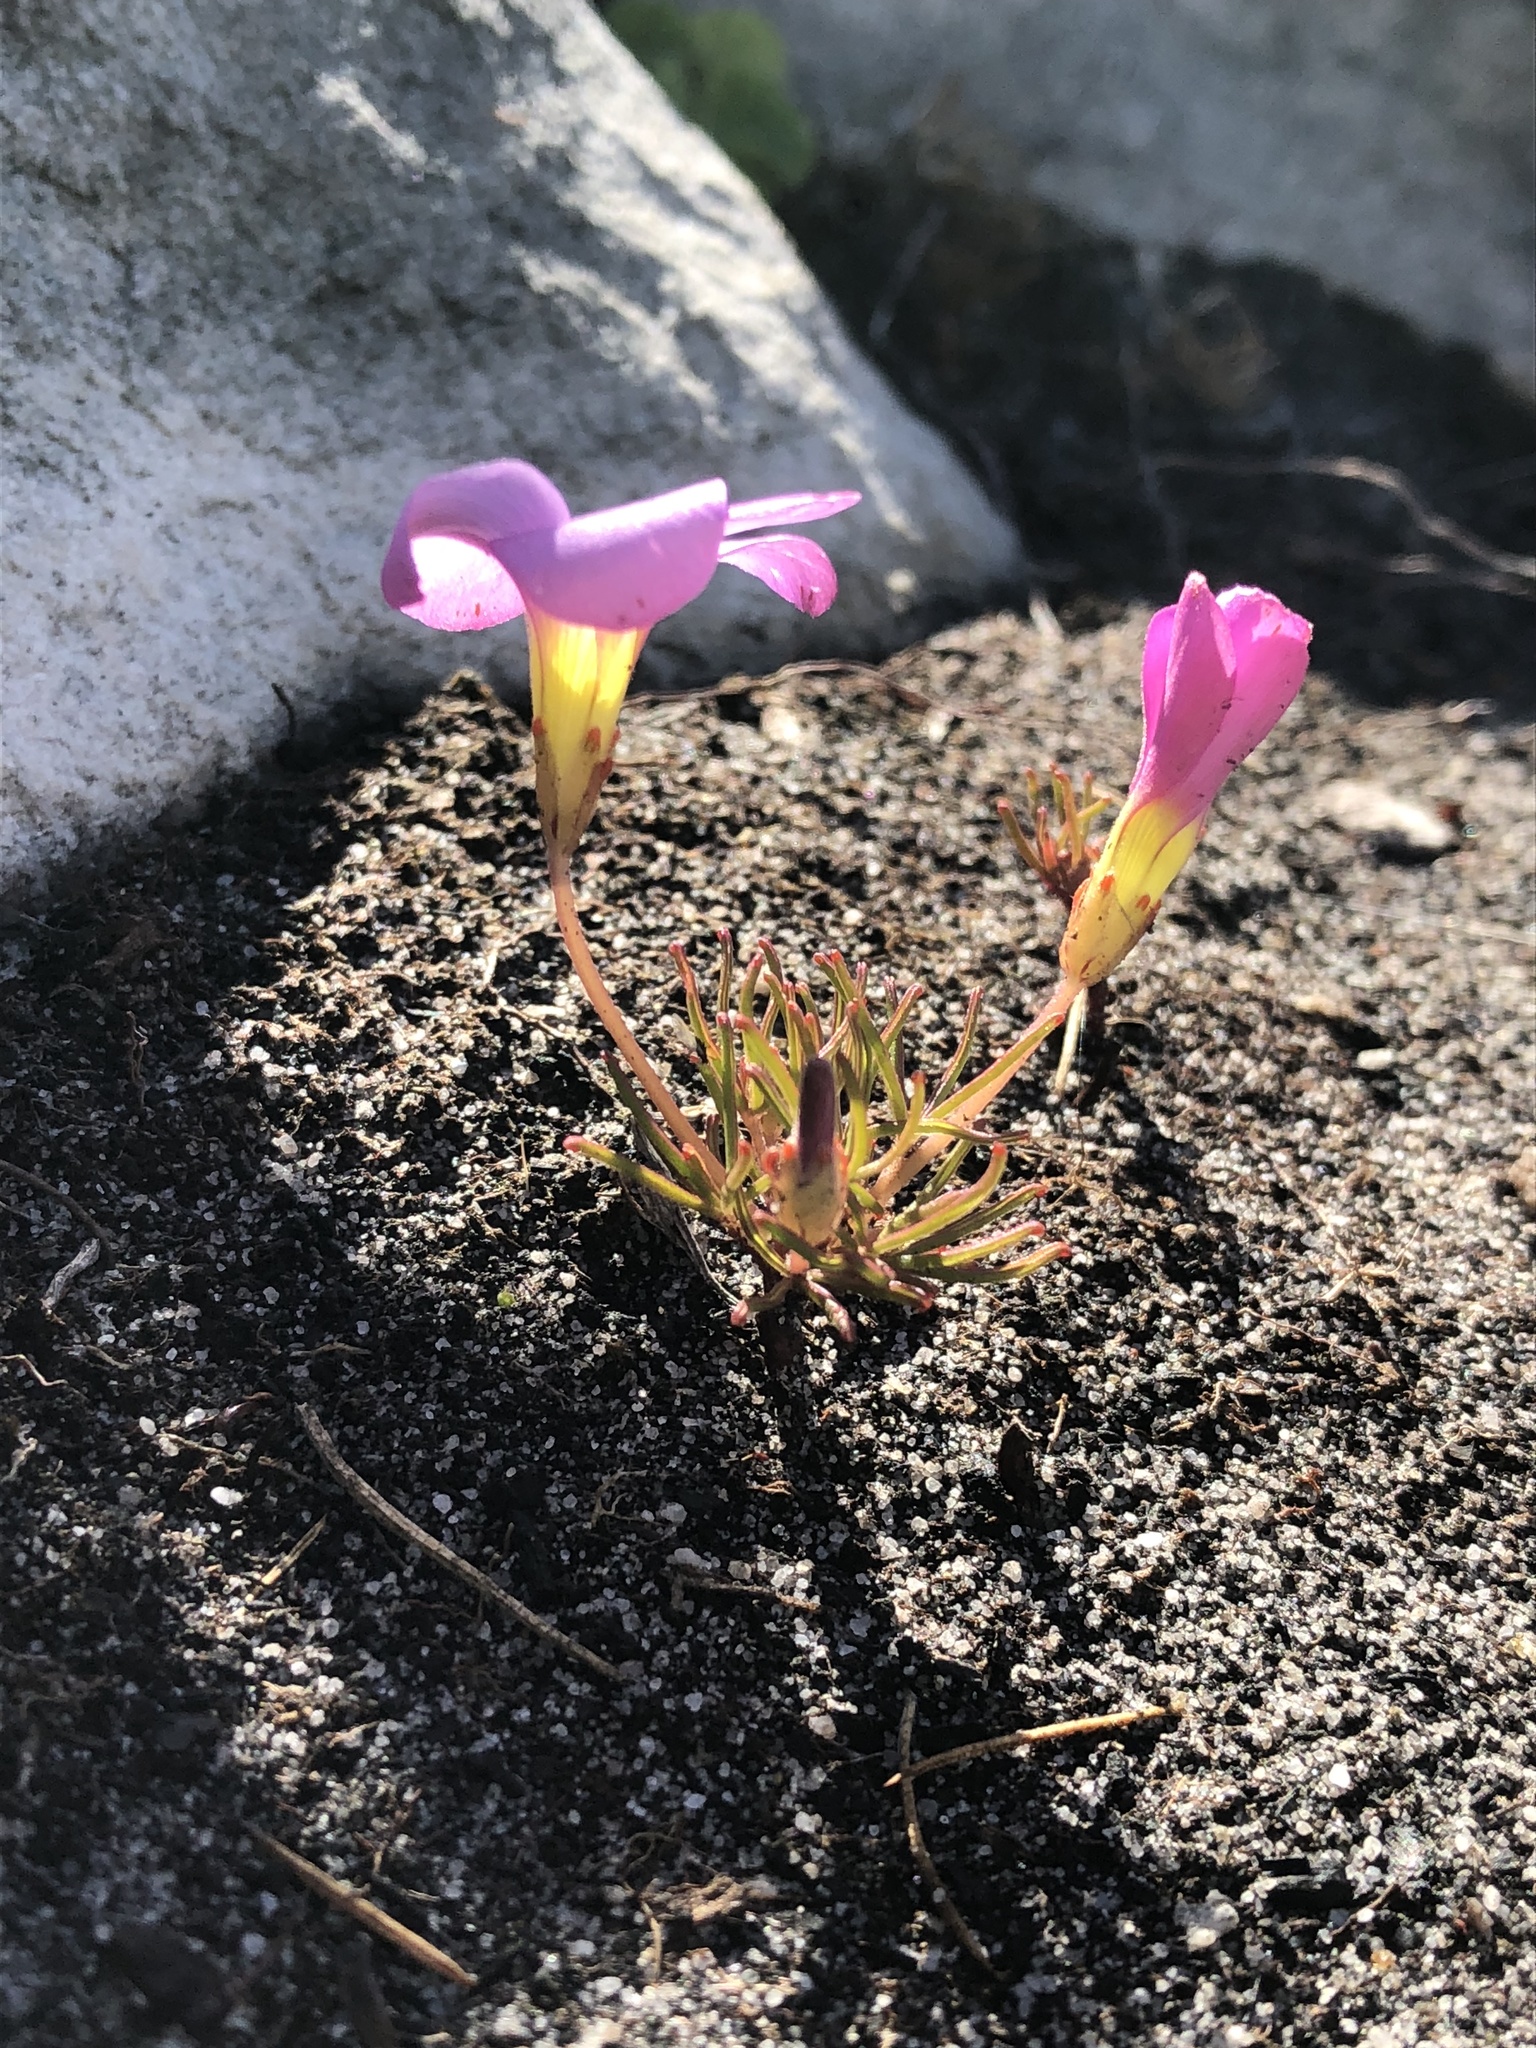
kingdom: Plantae
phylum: Tracheophyta
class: Magnoliopsida
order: Oxalidales
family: Oxalidaceae
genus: Oxalis
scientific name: Oxalis polyphylla
